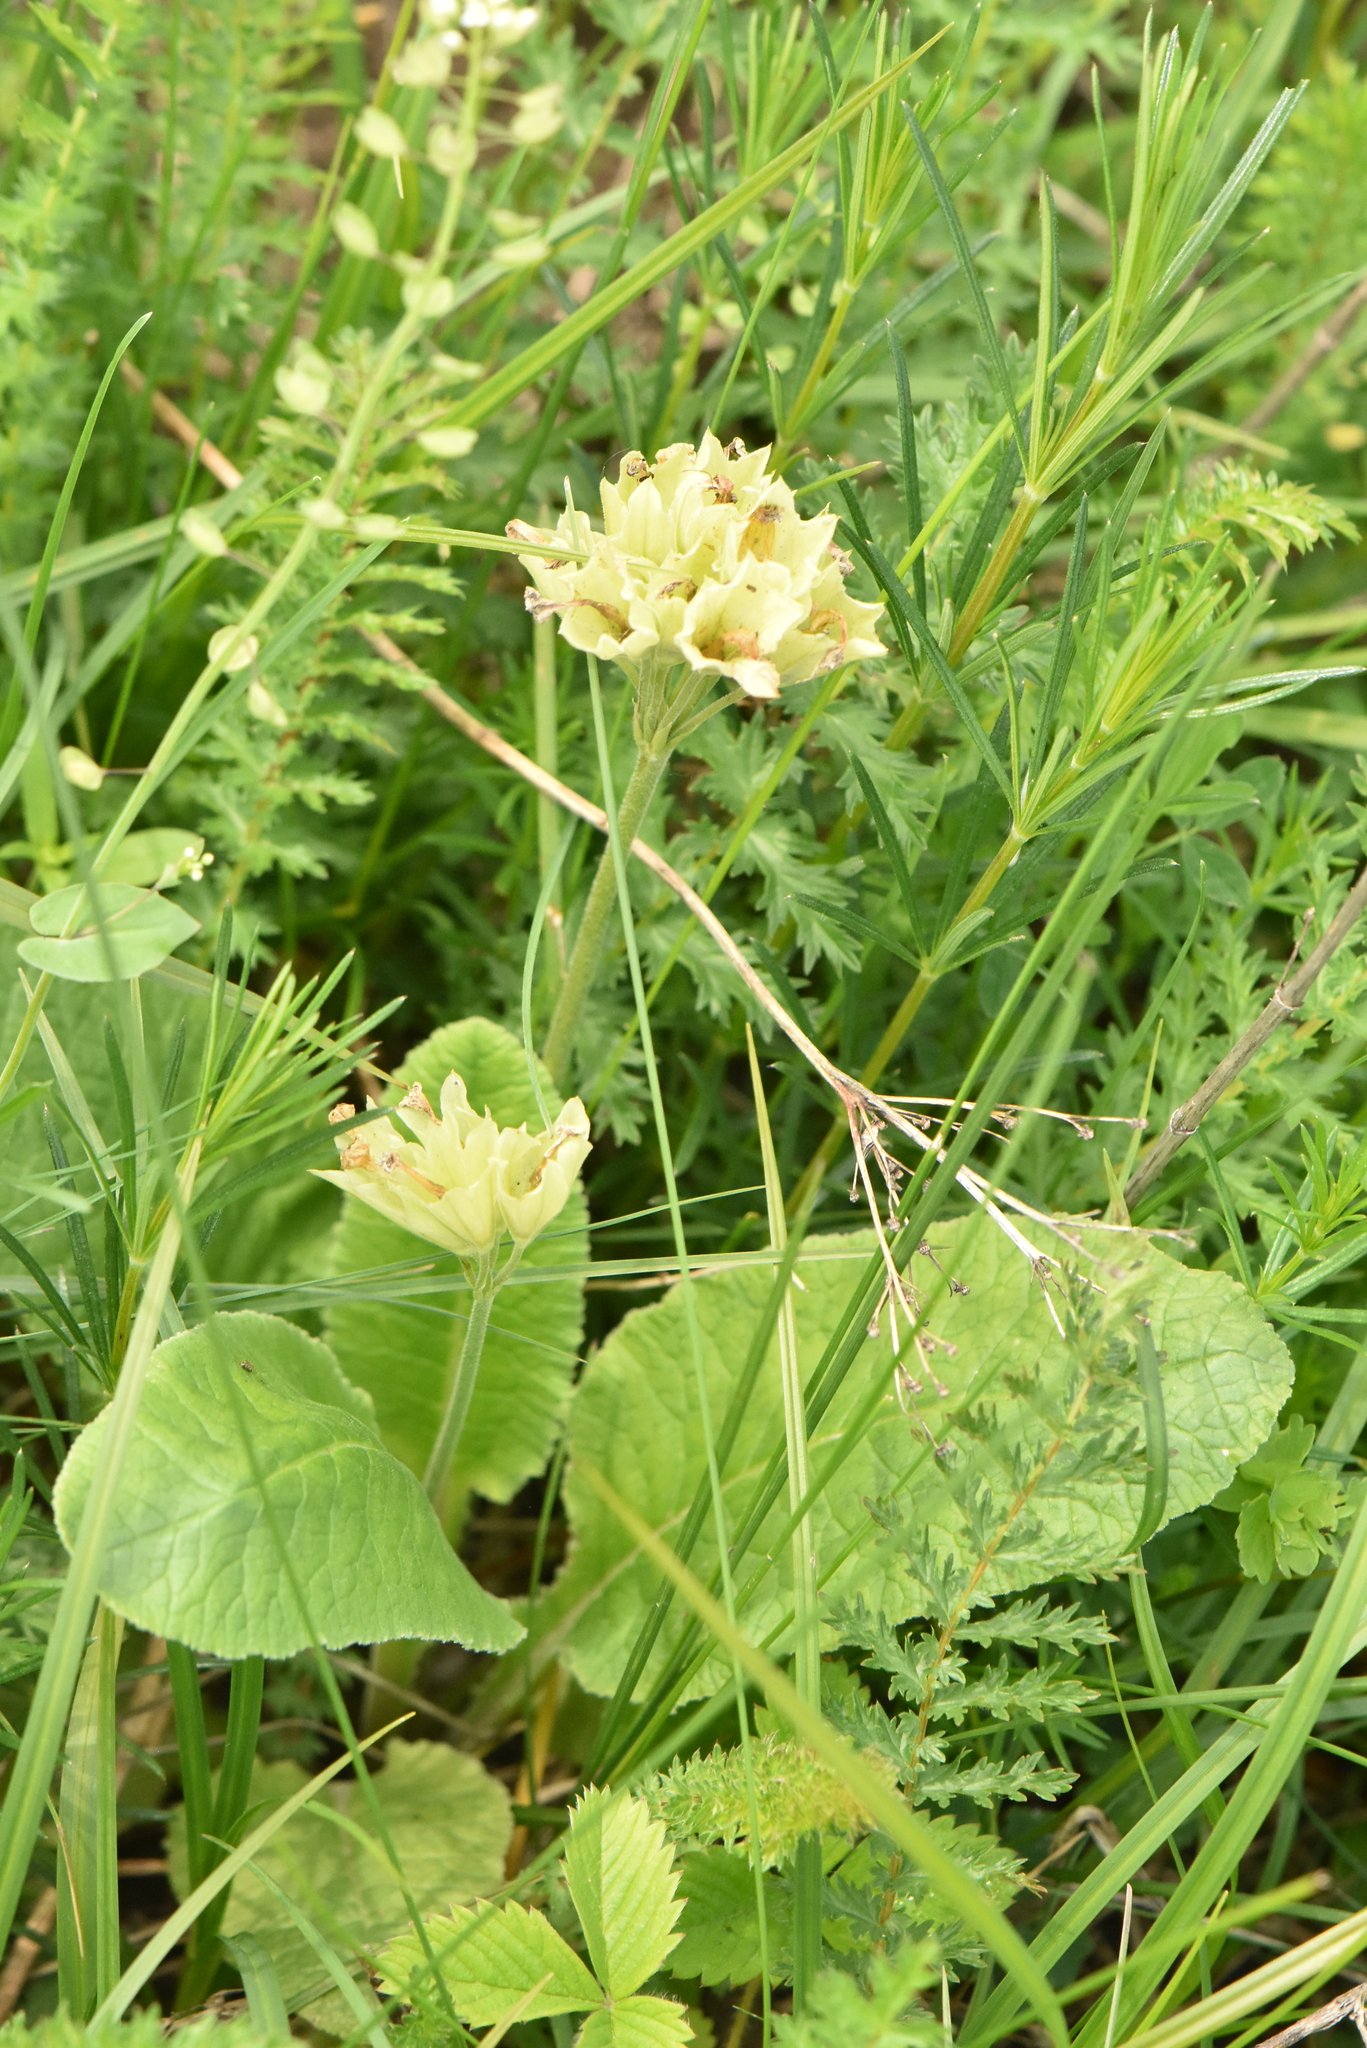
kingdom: Plantae
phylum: Tracheophyta
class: Magnoliopsida
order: Ericales
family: Primulaceae
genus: Primula
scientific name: Primula veris
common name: Cowslip
